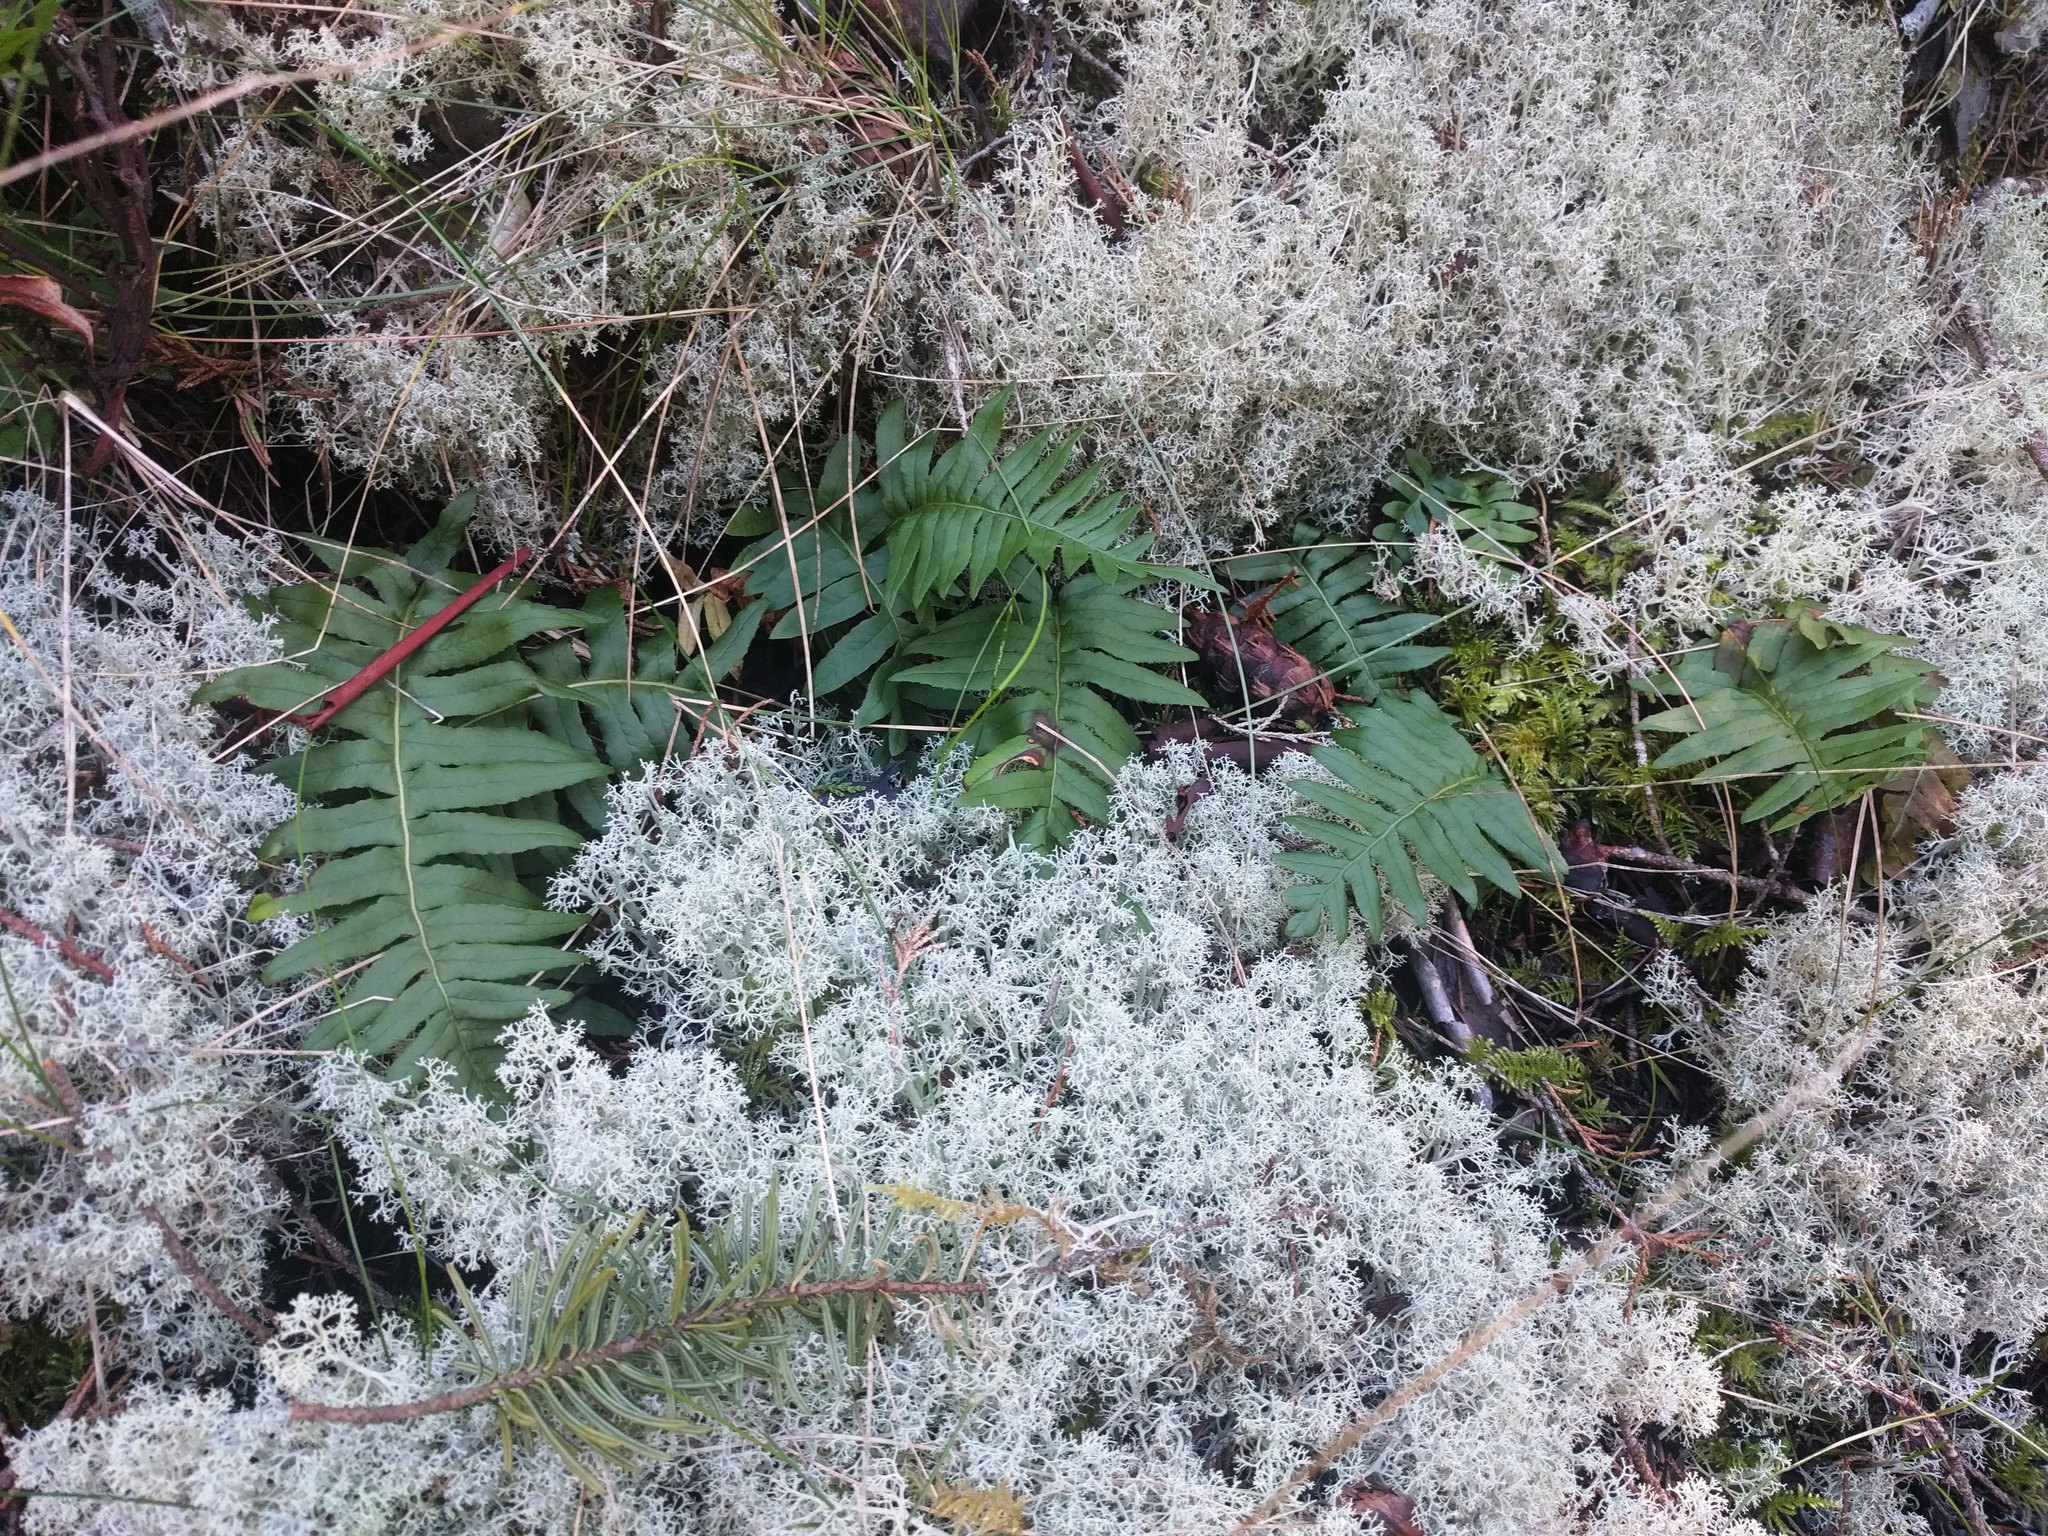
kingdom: Plantae
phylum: Tracheophyta
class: Polypodiopsida
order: Polypodiales
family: Polypodiaceae
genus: Polypodium
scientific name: Polypodium glycyrrhiza
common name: Licorice fern
